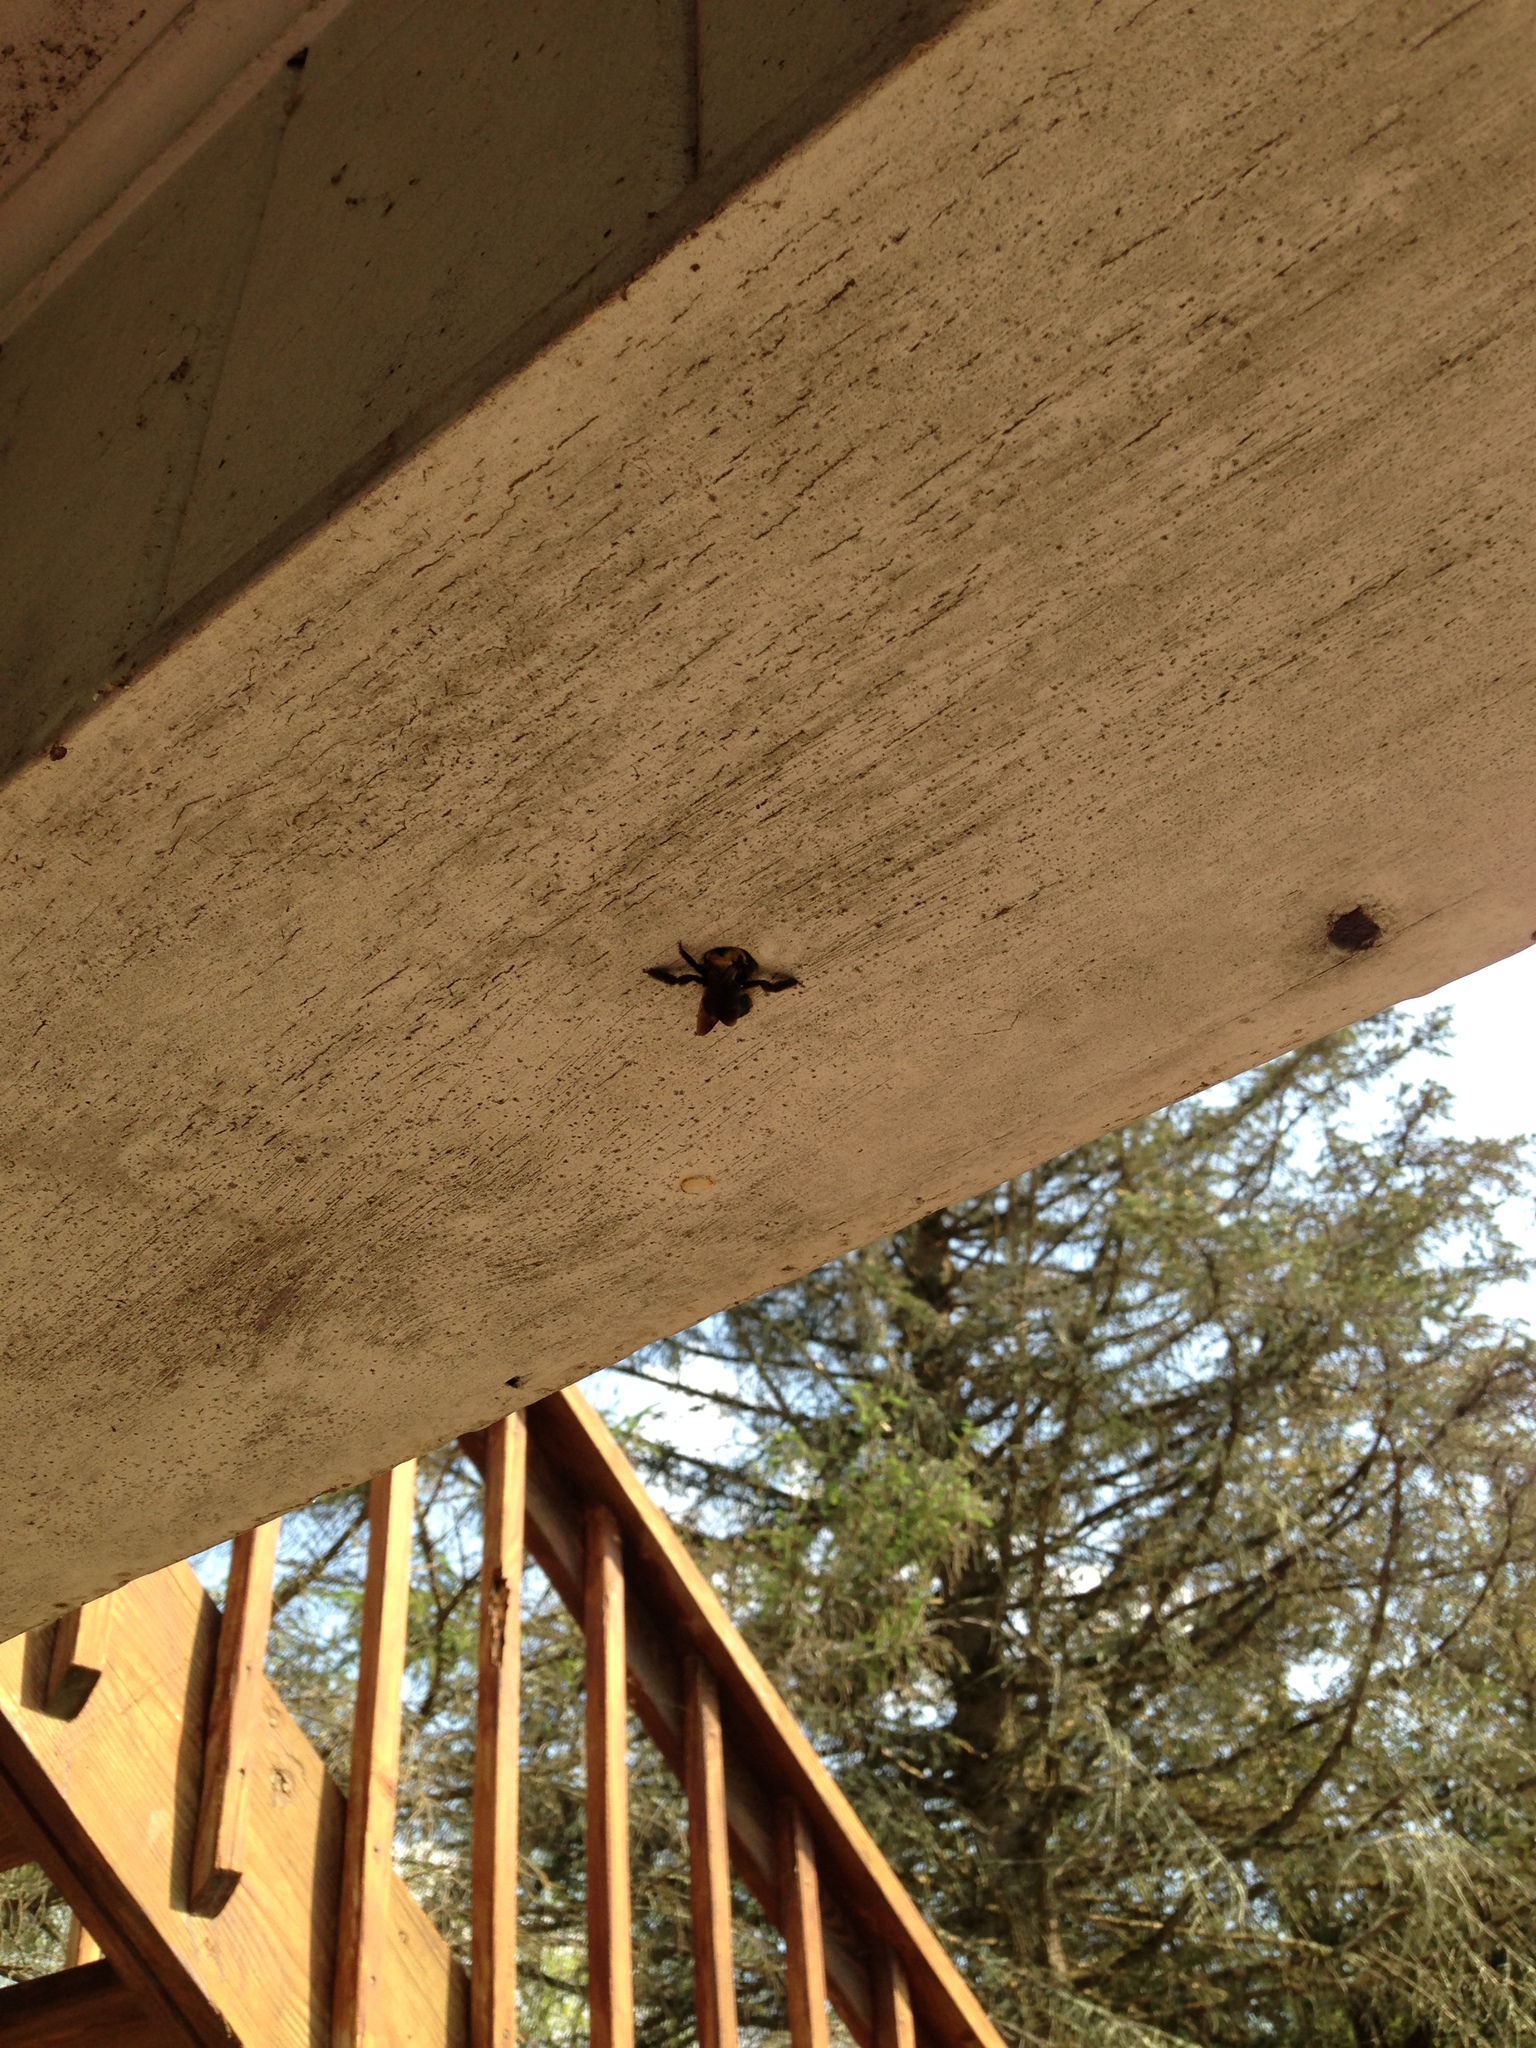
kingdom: Animalia
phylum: Arthropoda
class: Insecta
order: Hymenoptera
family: Apidae
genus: Xylocopa
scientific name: Xylocopa virginica
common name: Carpenter bee
